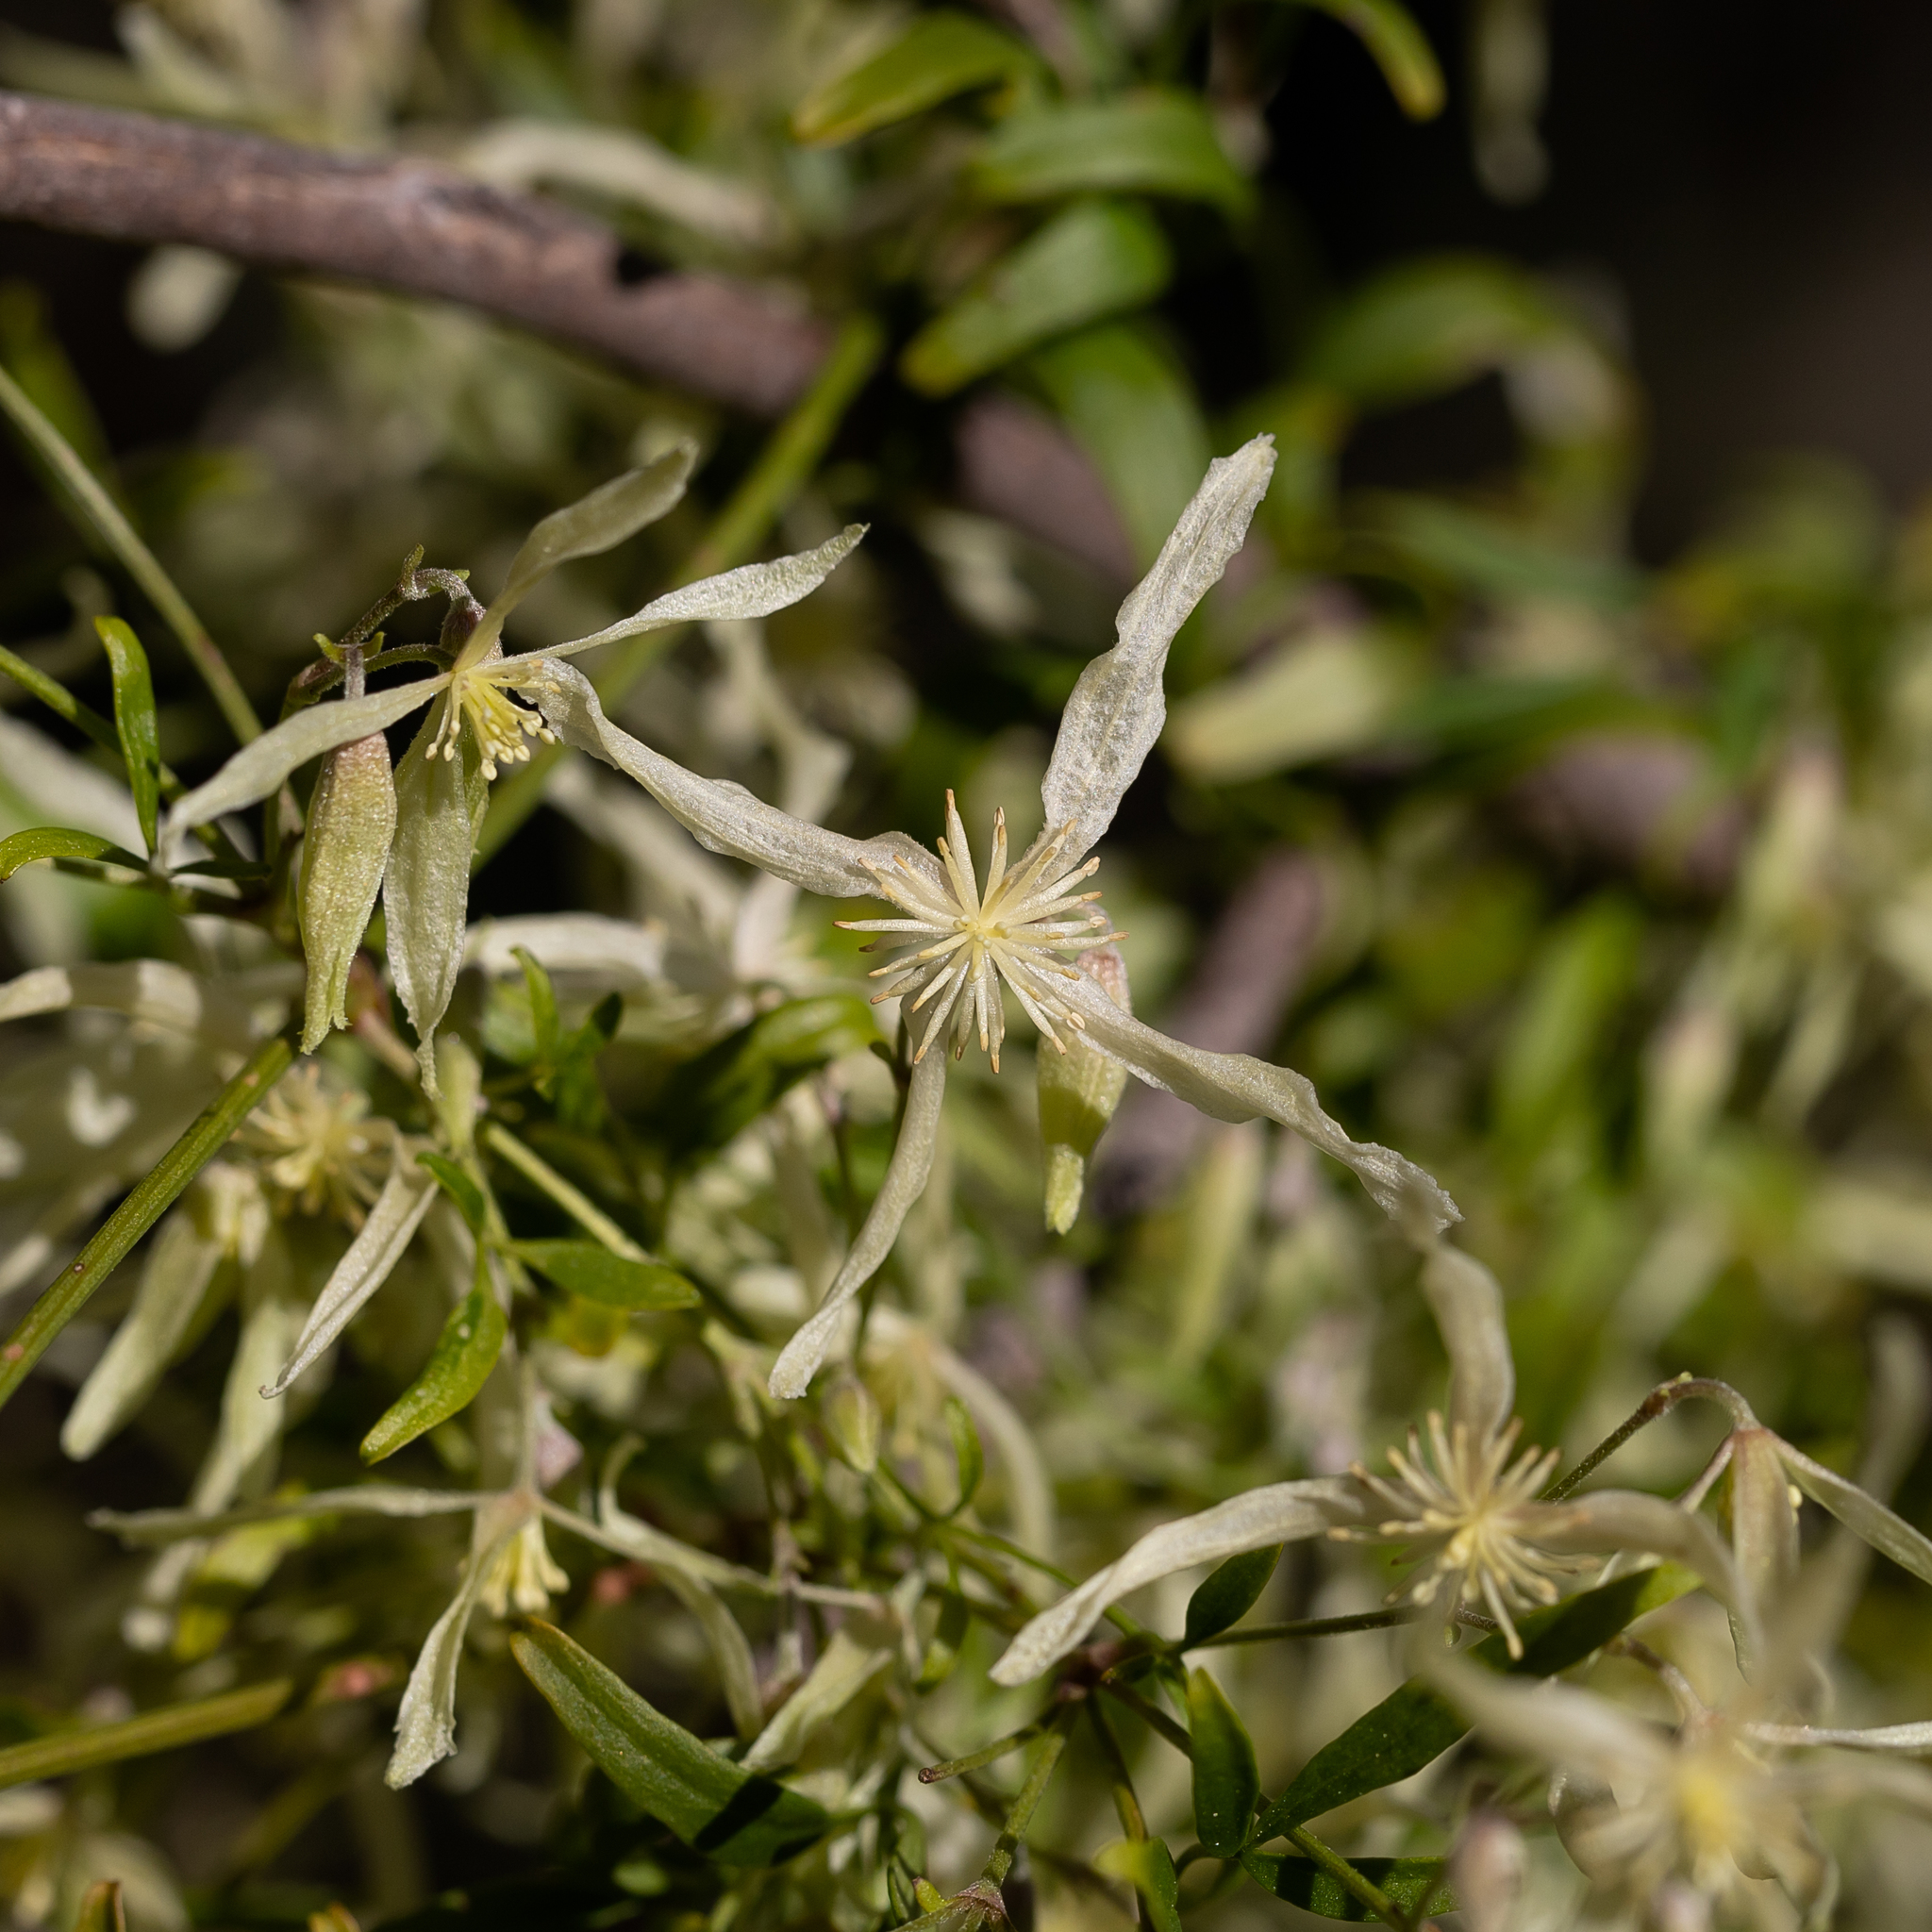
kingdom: Plantae
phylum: Tracheophyta
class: Magnoliopsida
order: Ranunculales
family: Ranunculaceae
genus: Clematis
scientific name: Clematis microphylla
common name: Headachevine
